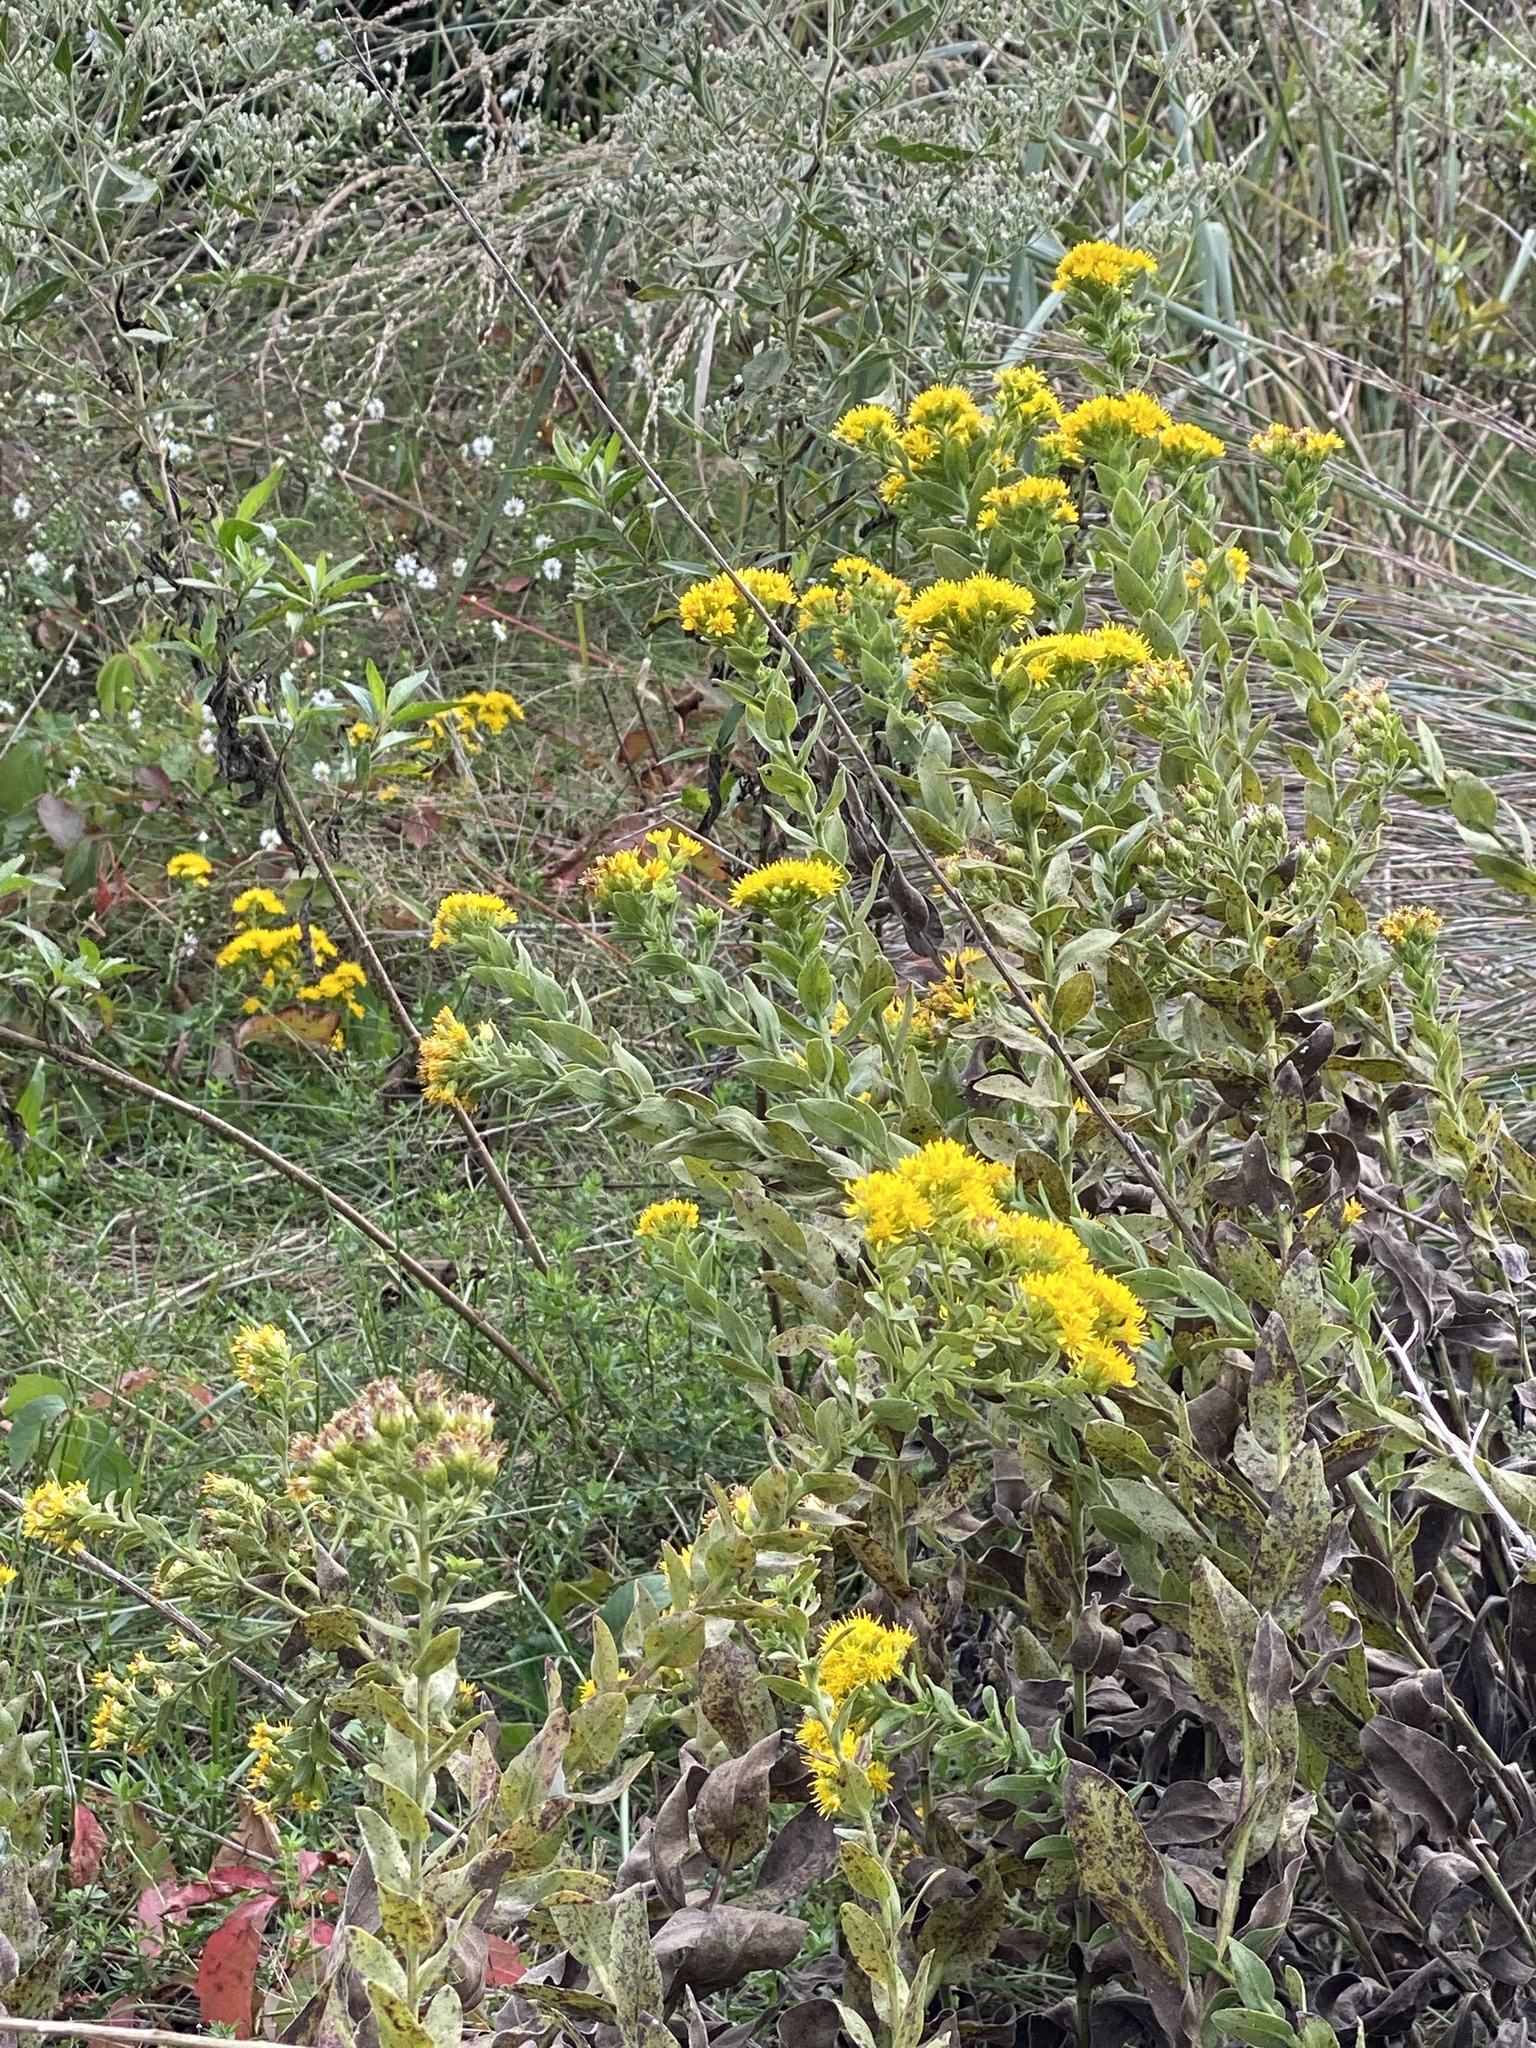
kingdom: Plantae
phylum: Tracheophyta
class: Magnoliopsida
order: Asterales
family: Asteraceae
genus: Solidago
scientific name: Solidago rigida
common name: Rigid goldenrod
